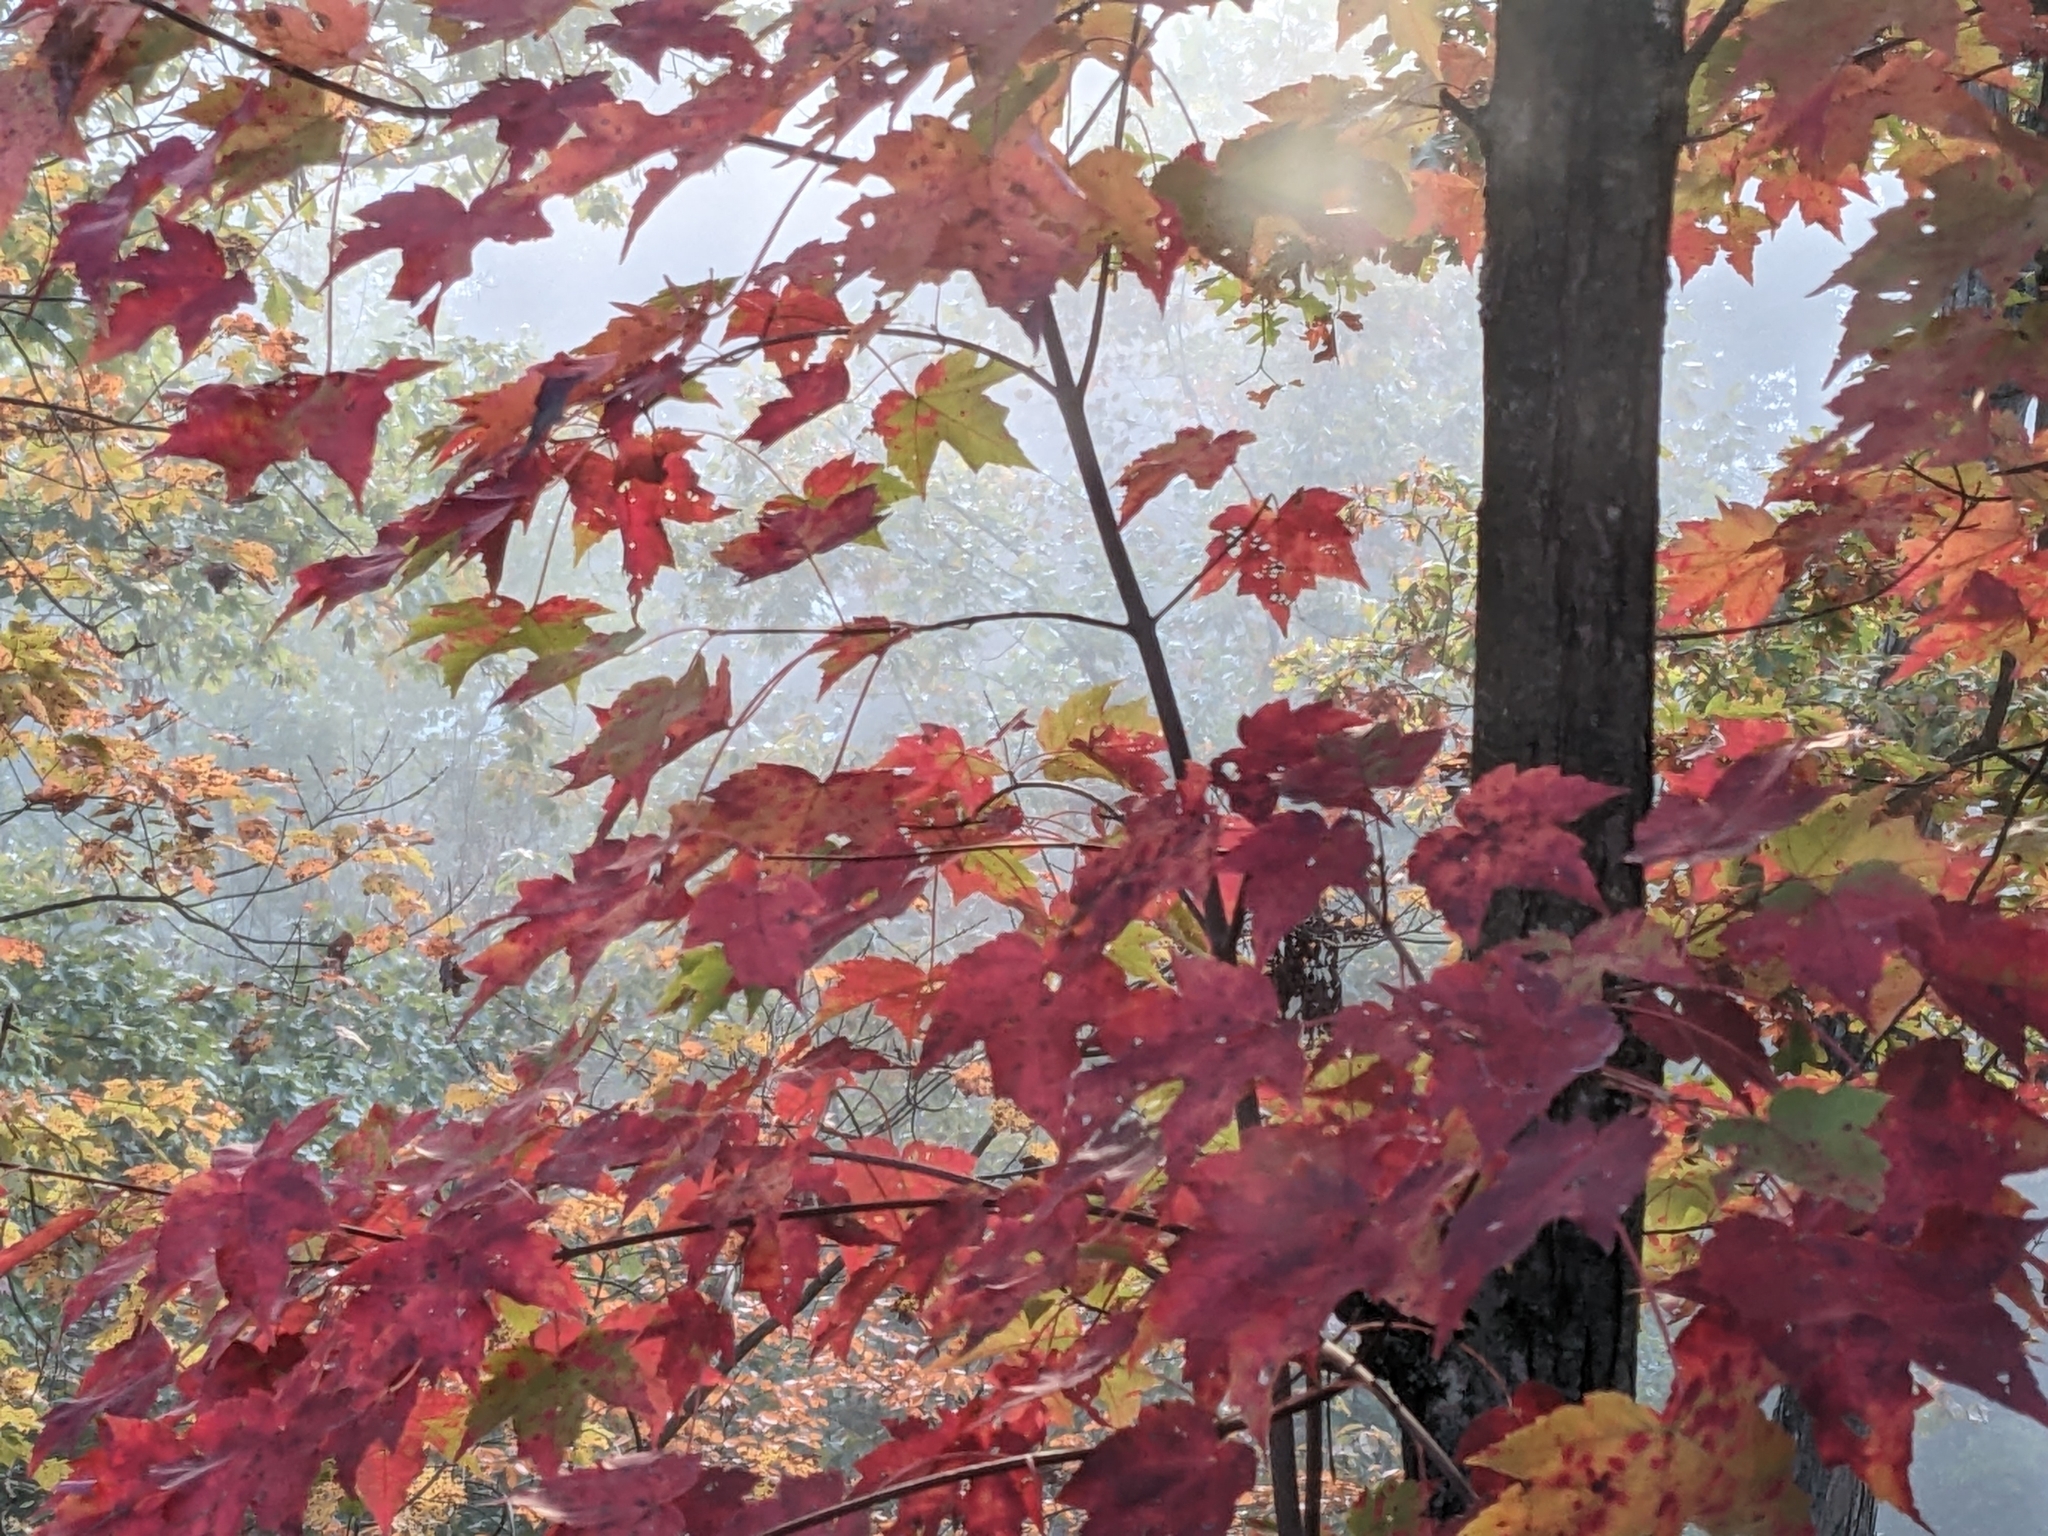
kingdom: Plantae
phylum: Tracheophyta
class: Magnoliopsida
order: Sapindales
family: Sapindaceae
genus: Acer
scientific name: Acer rubrum
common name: Red maple
